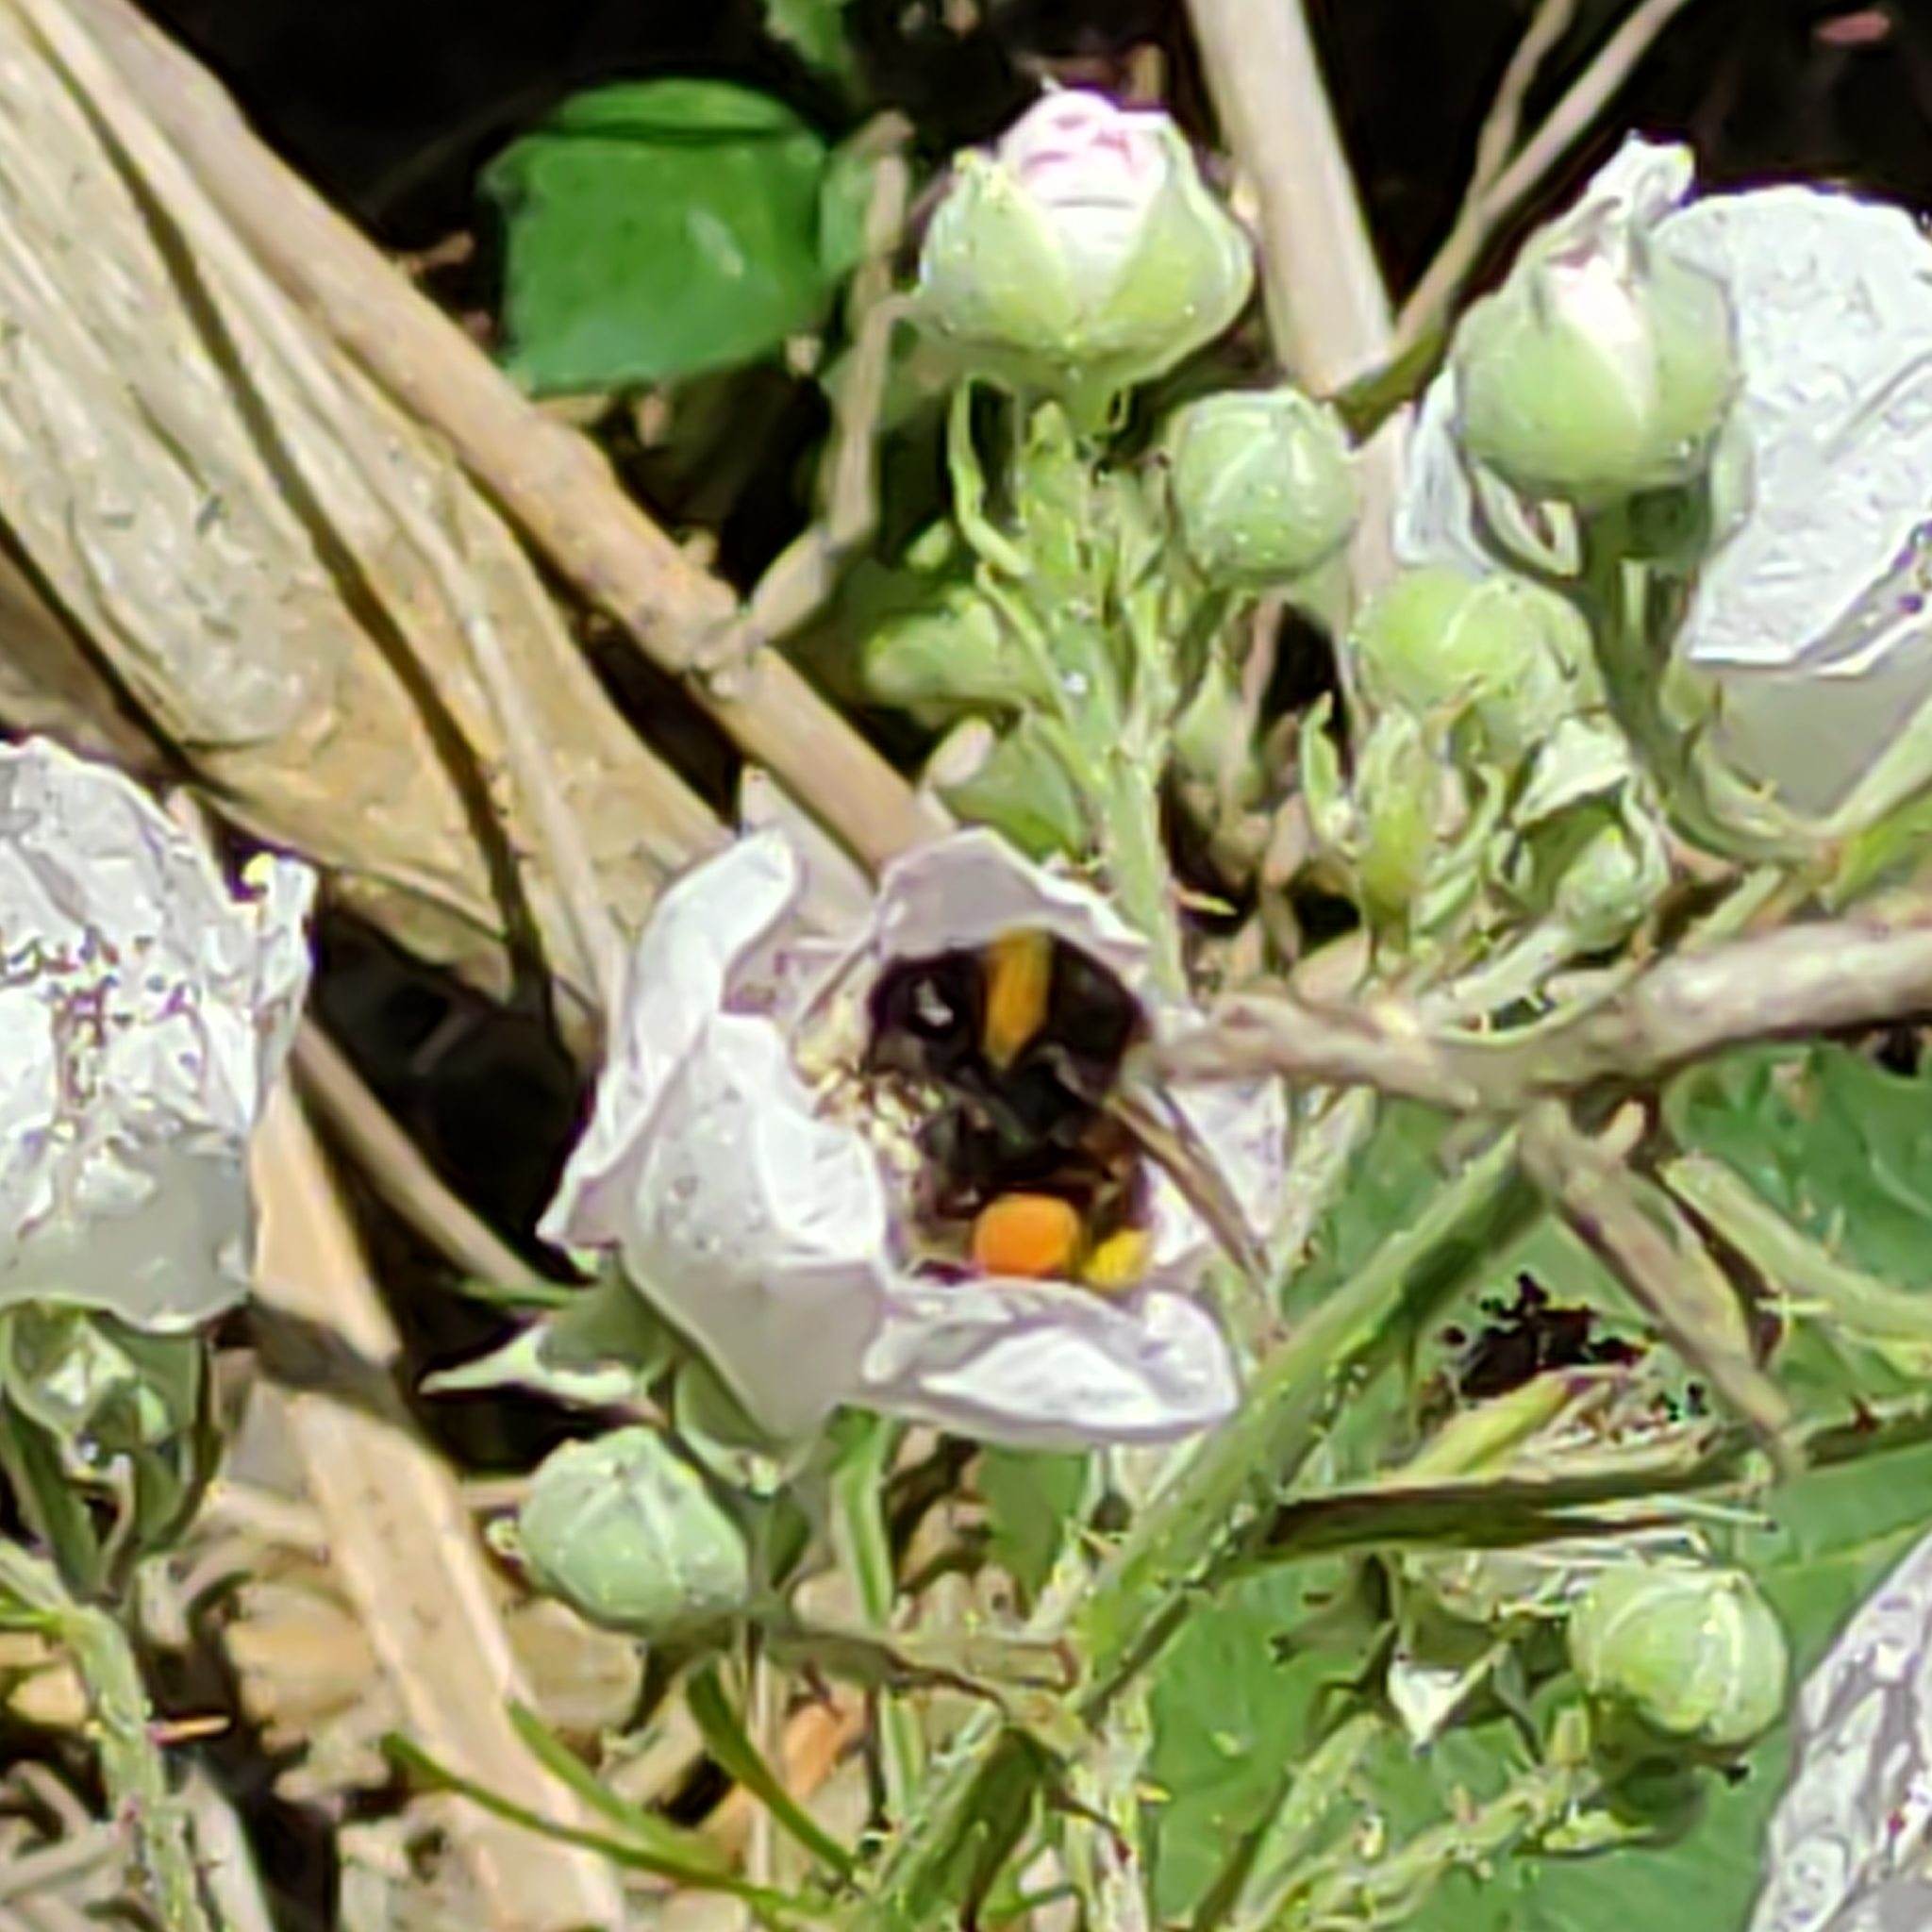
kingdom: Animalia
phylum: Arthropoda
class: Insecta
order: Hymenoptera
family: Apidae
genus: Bombus
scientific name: Bombus terrestris
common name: Buff-tailed bumblebee
